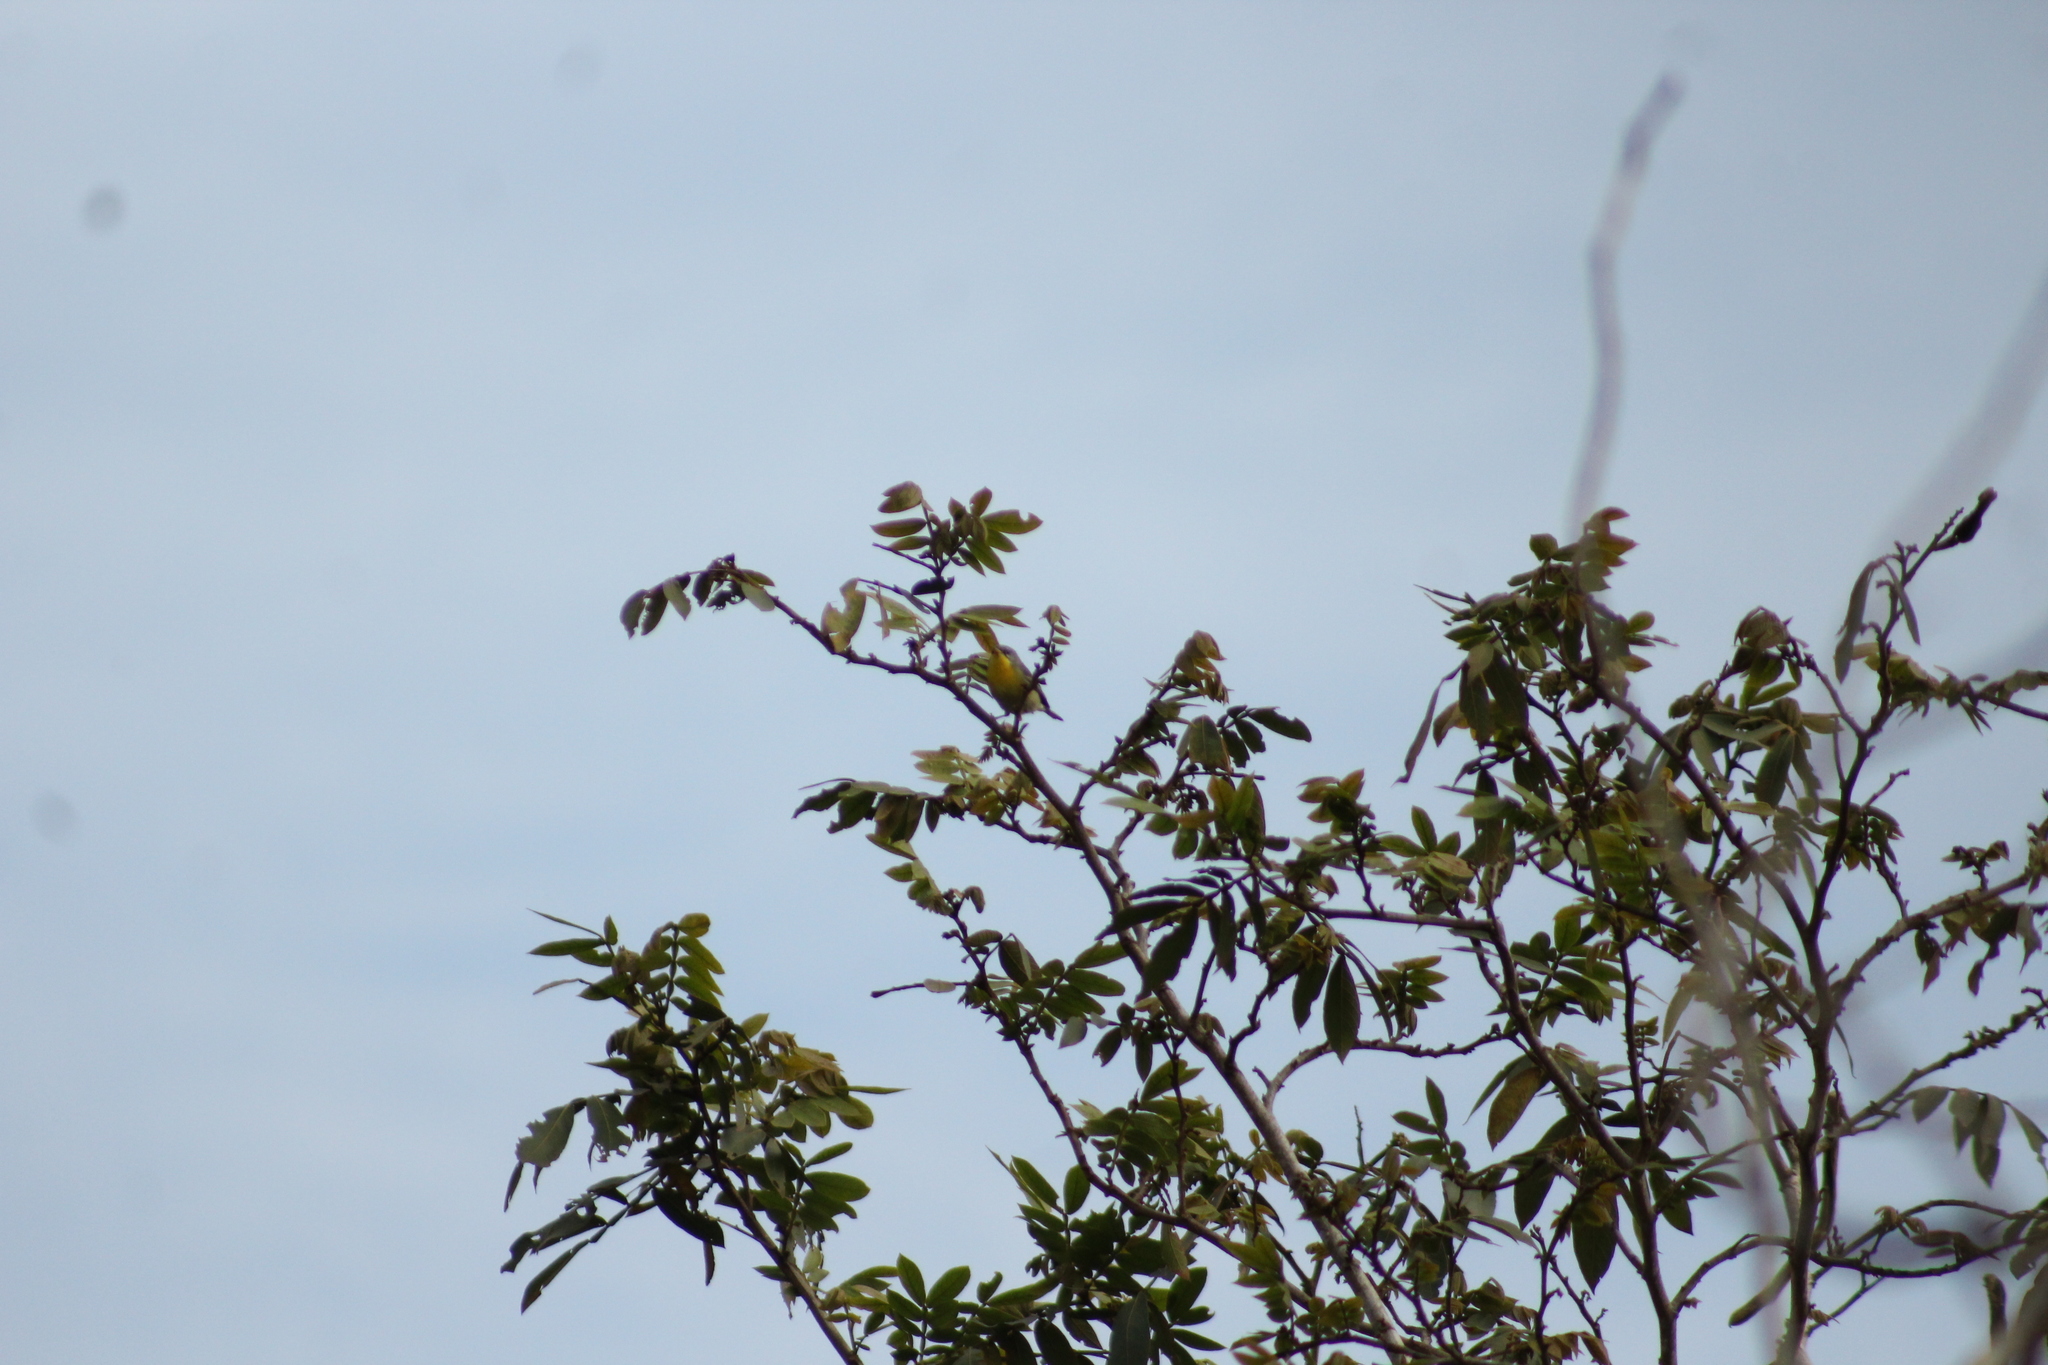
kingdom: Animalia
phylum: Chordata
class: Aves
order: Passeriformes
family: Parulidae
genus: Setophaga
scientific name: Setophaga pitiayumi
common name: Tropical parula
